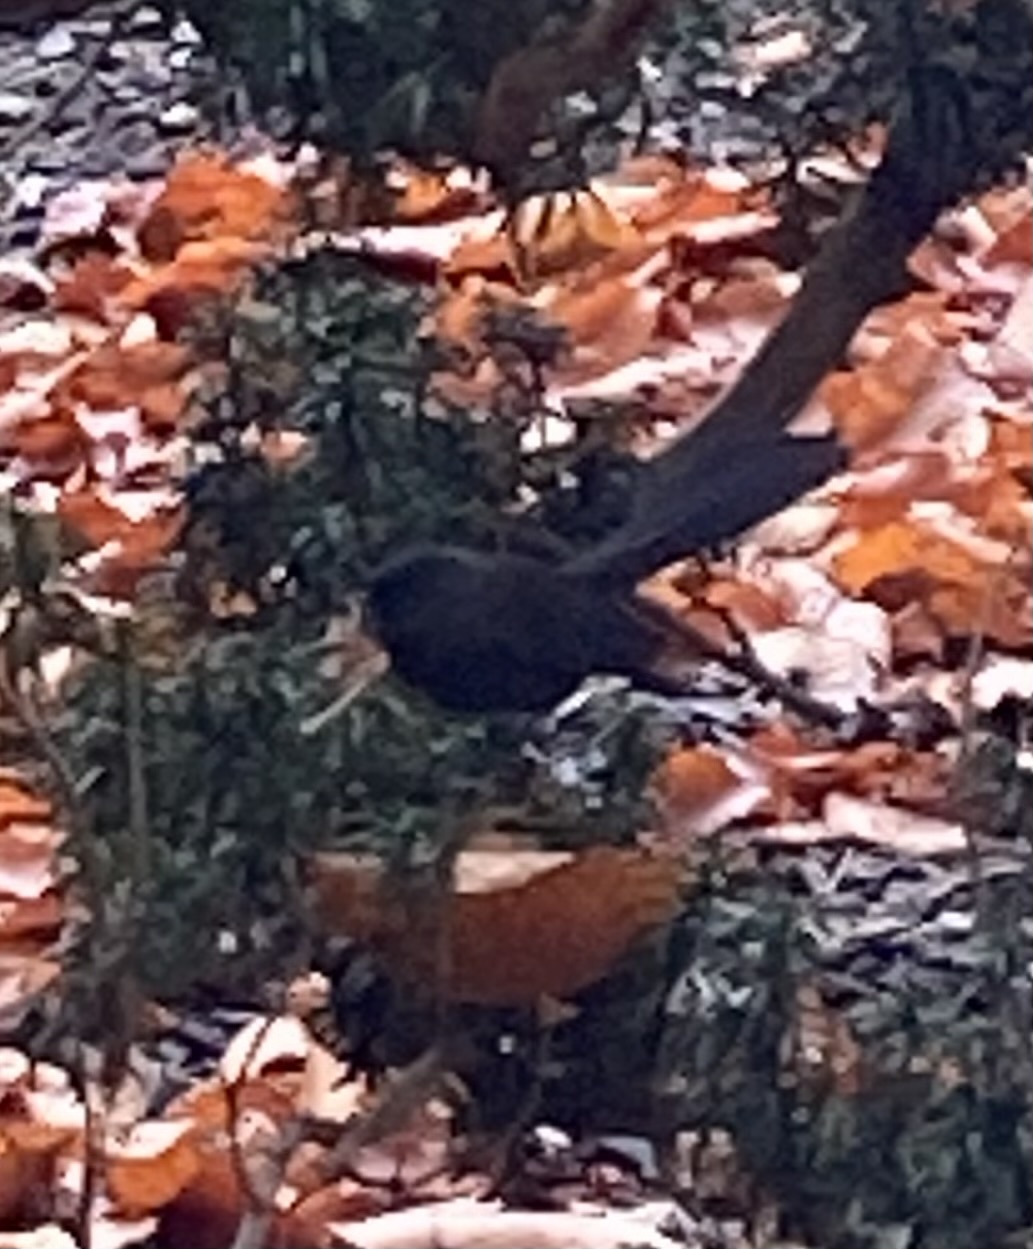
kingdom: Animalia
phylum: Chordata
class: Aves
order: Passeriformes
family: Rhipiduridae
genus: Rhipidura
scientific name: Rhipidura fuliginosa
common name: New zealand fantail
